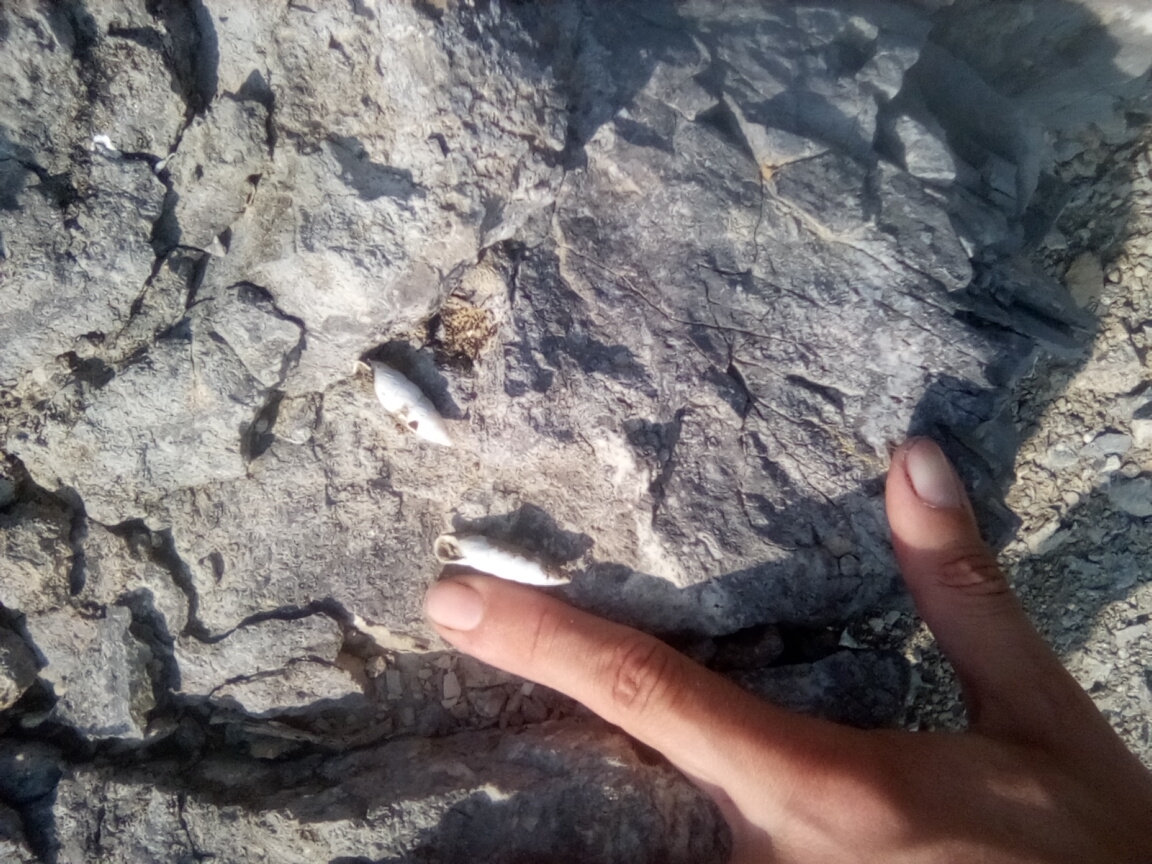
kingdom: Animalia
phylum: Mollusca
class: Gastropoda
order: Stylommatophora
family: Enidae
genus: Brephulopsis
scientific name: Brephulopsis bidens
